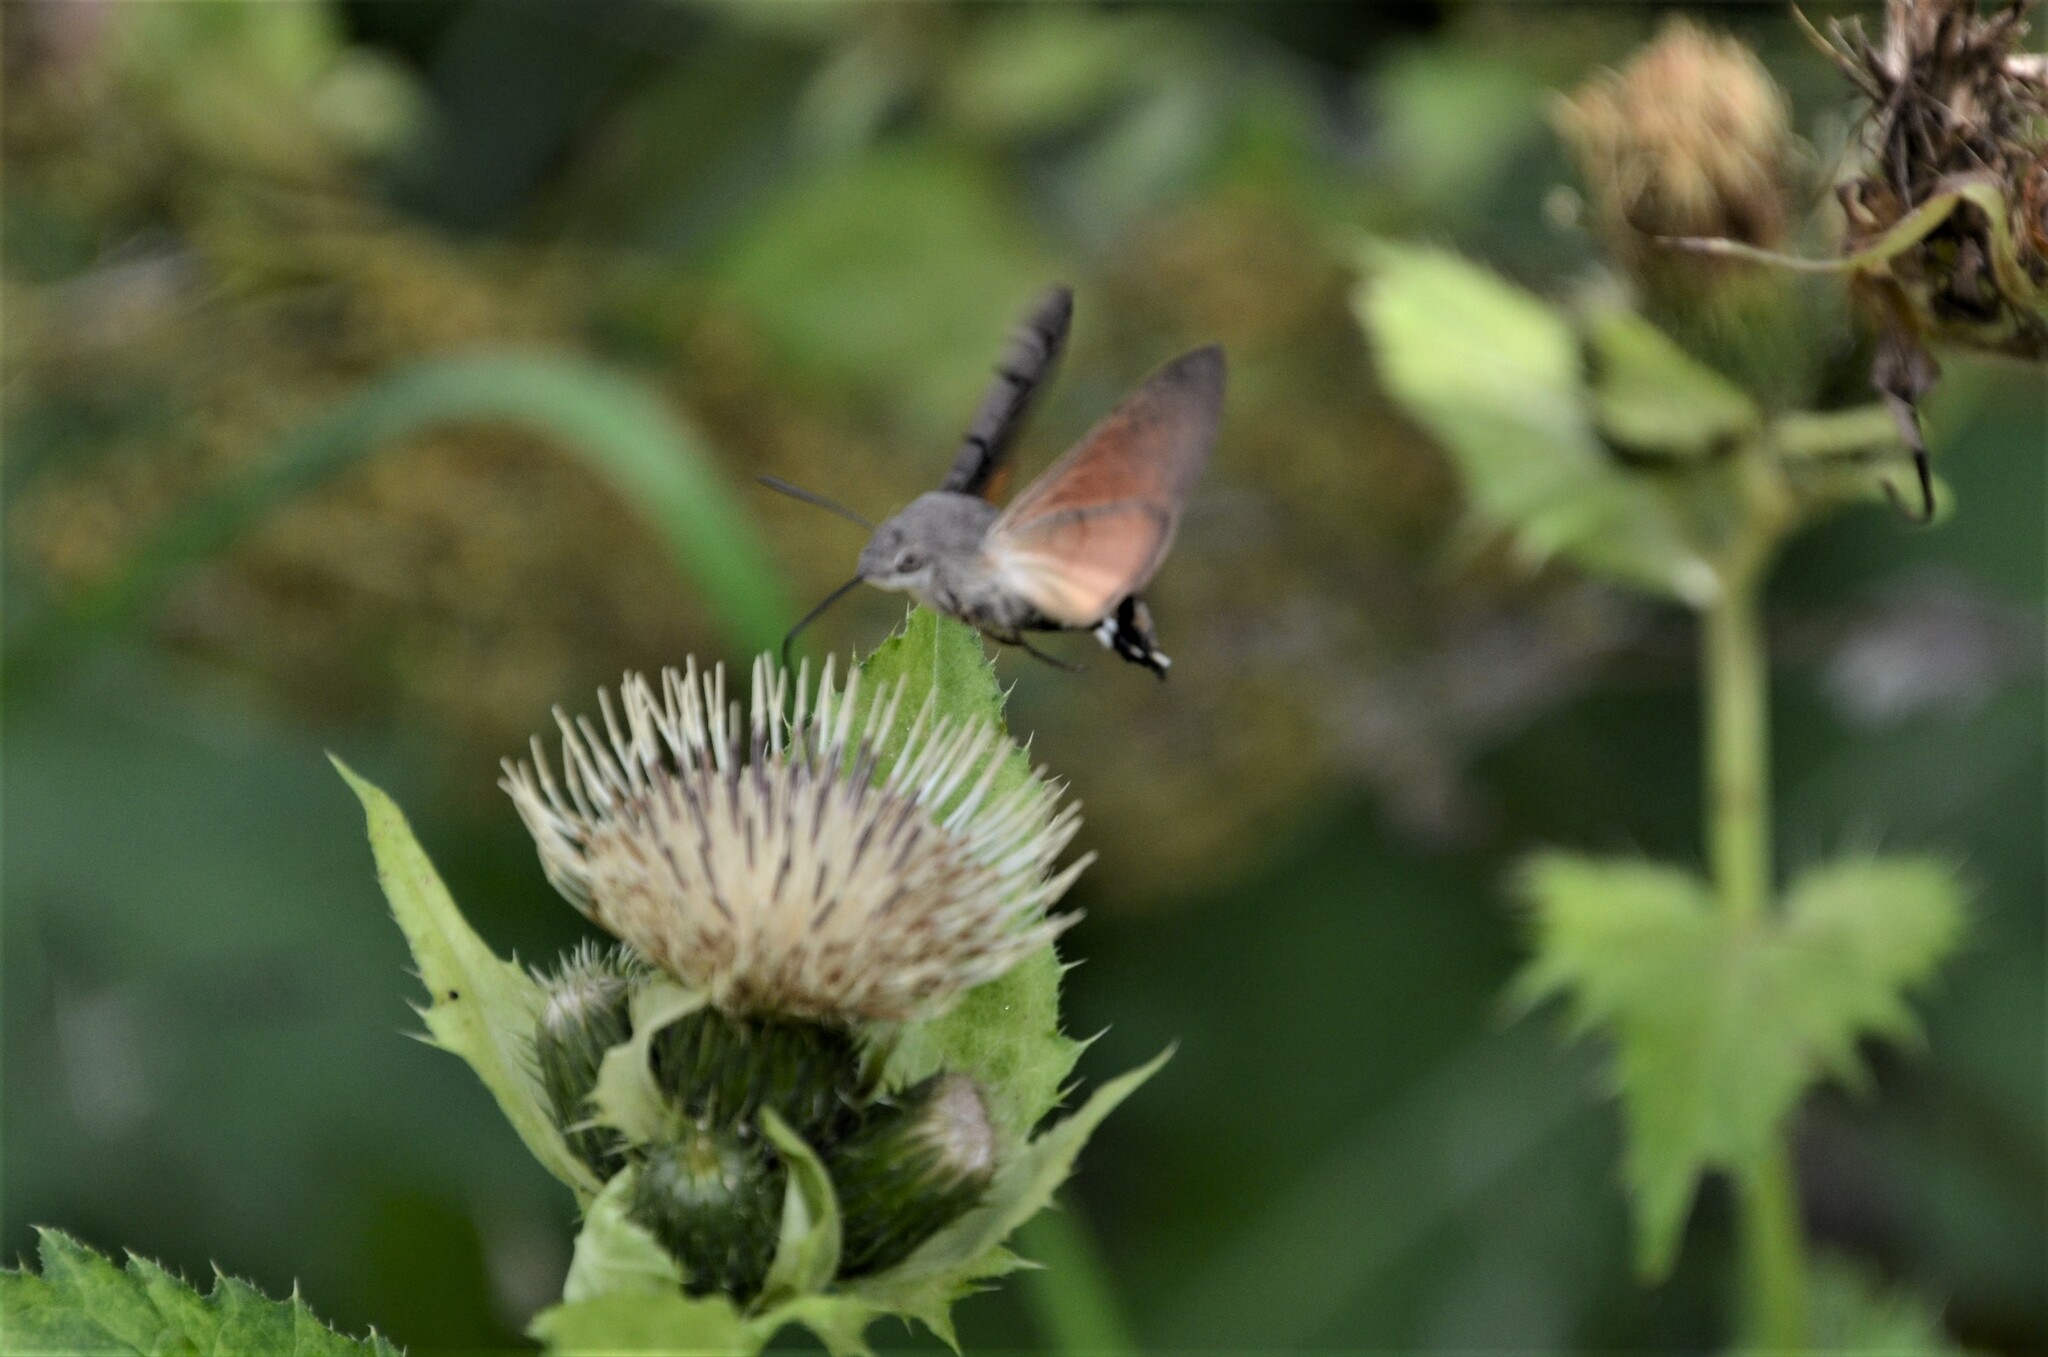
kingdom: Animalia
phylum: Arthropoda
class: Insecta
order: Lepidoptera
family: Sphingidae
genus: Macroglossum
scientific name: Macroglossum stellatarum
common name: Humming-bird hawk-moth
